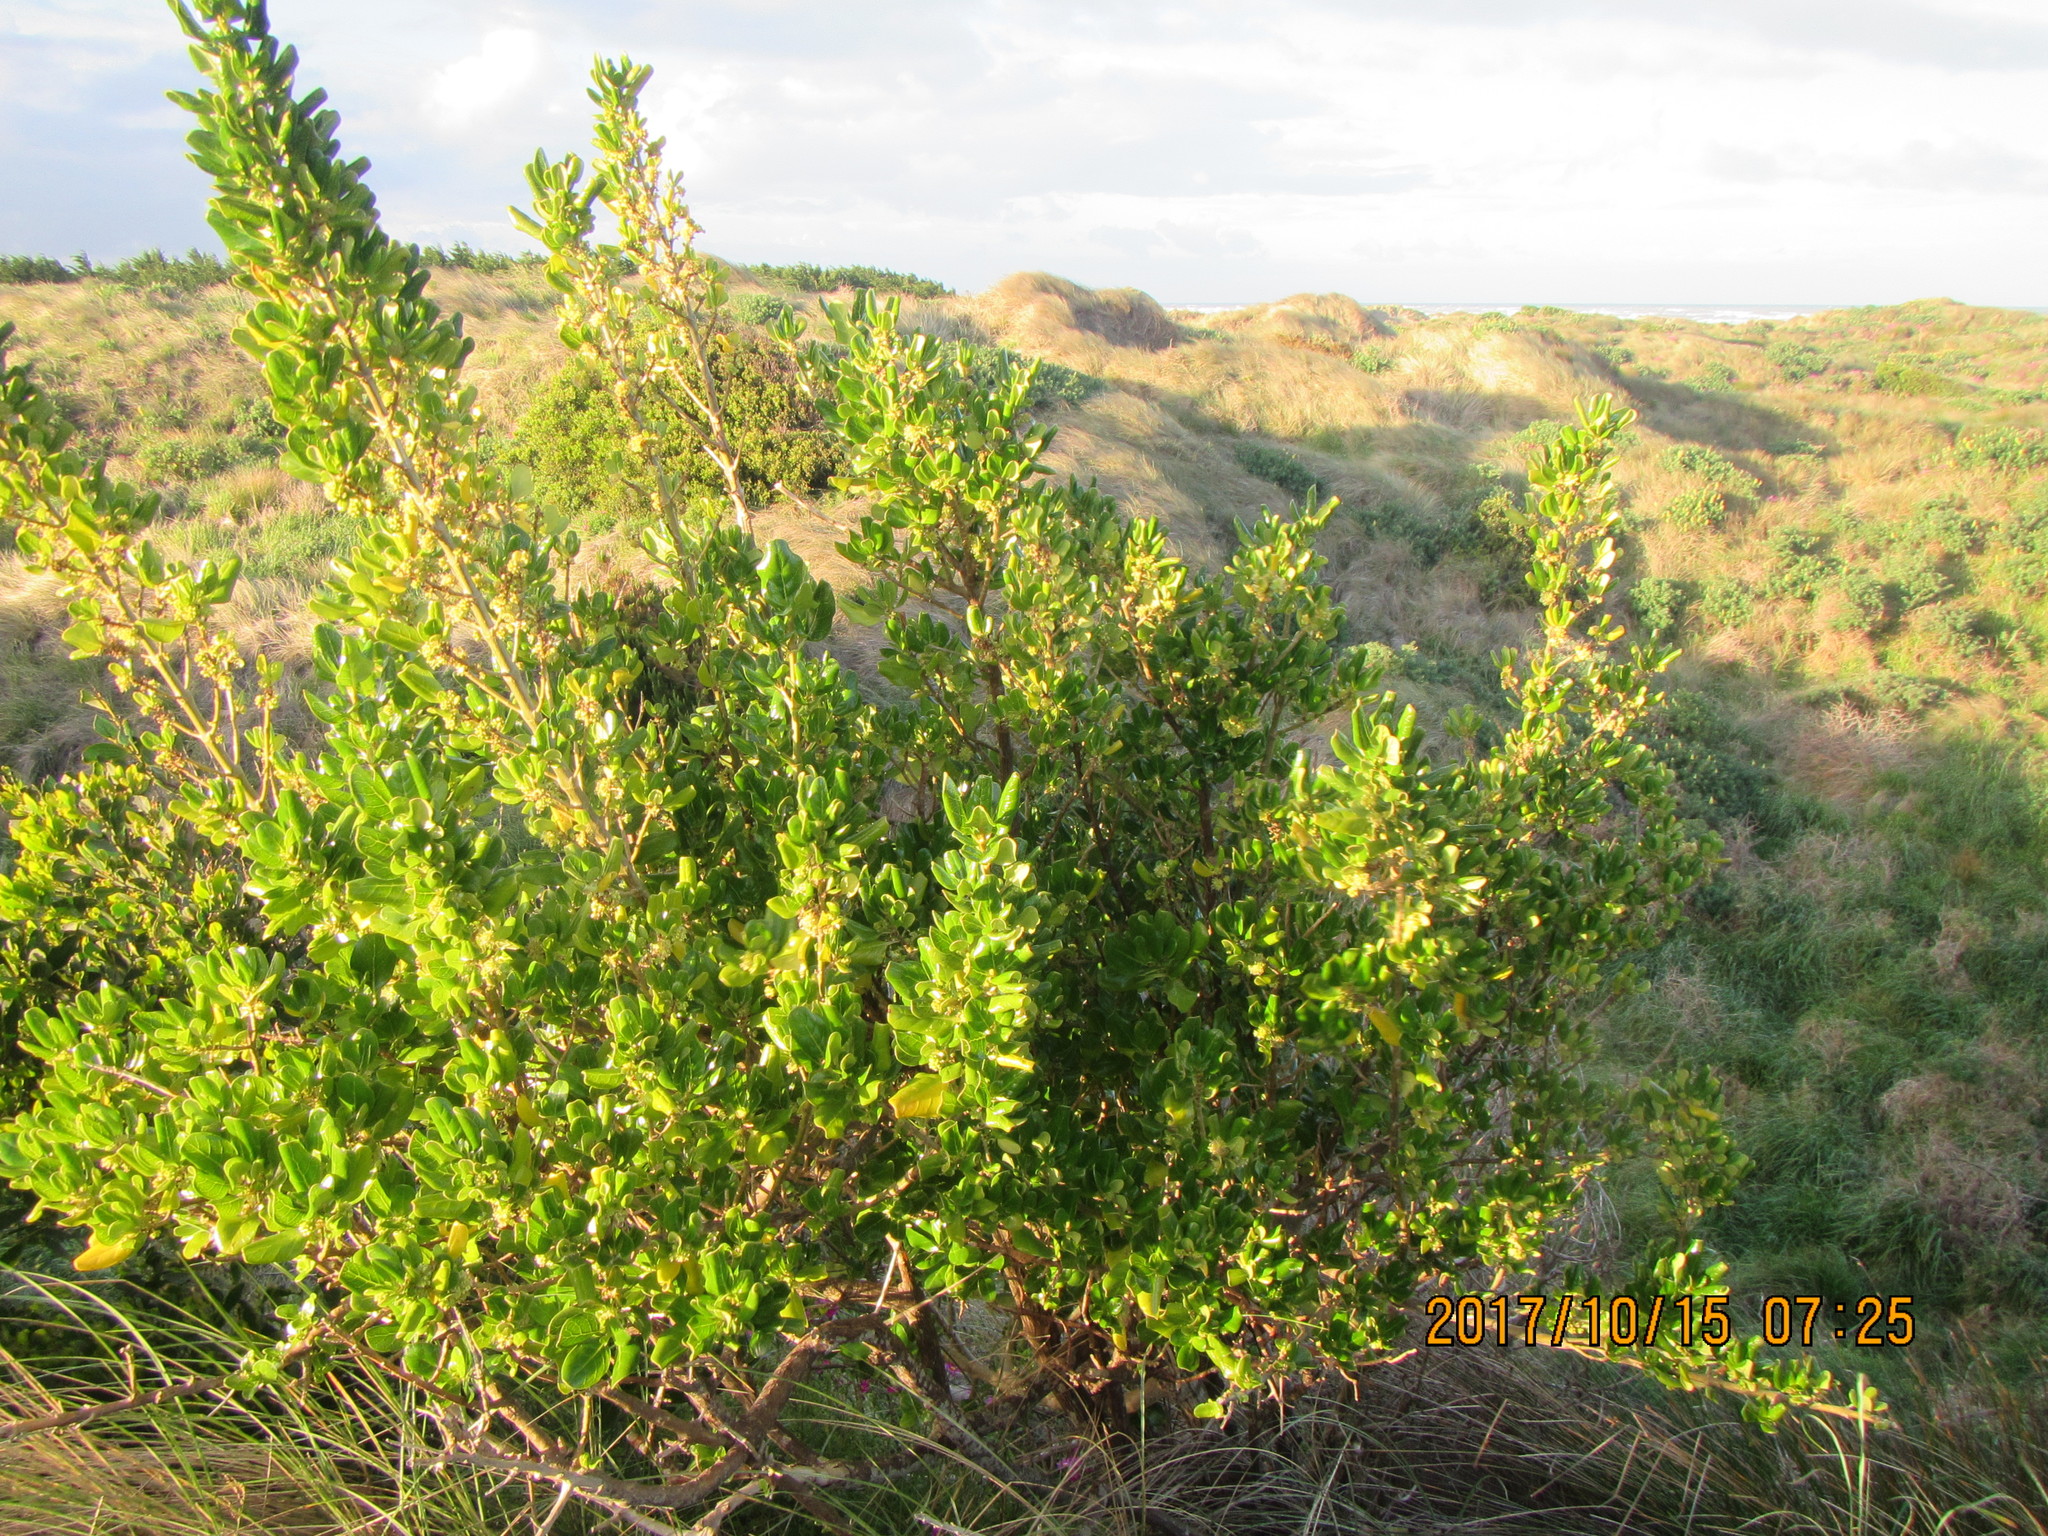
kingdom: Plantae
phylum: Tracheophyta
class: Magnoliopsida
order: Gentianales
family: Rubiaceae
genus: Coprosma
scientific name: Coprosma repens
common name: Tree bedstraw
